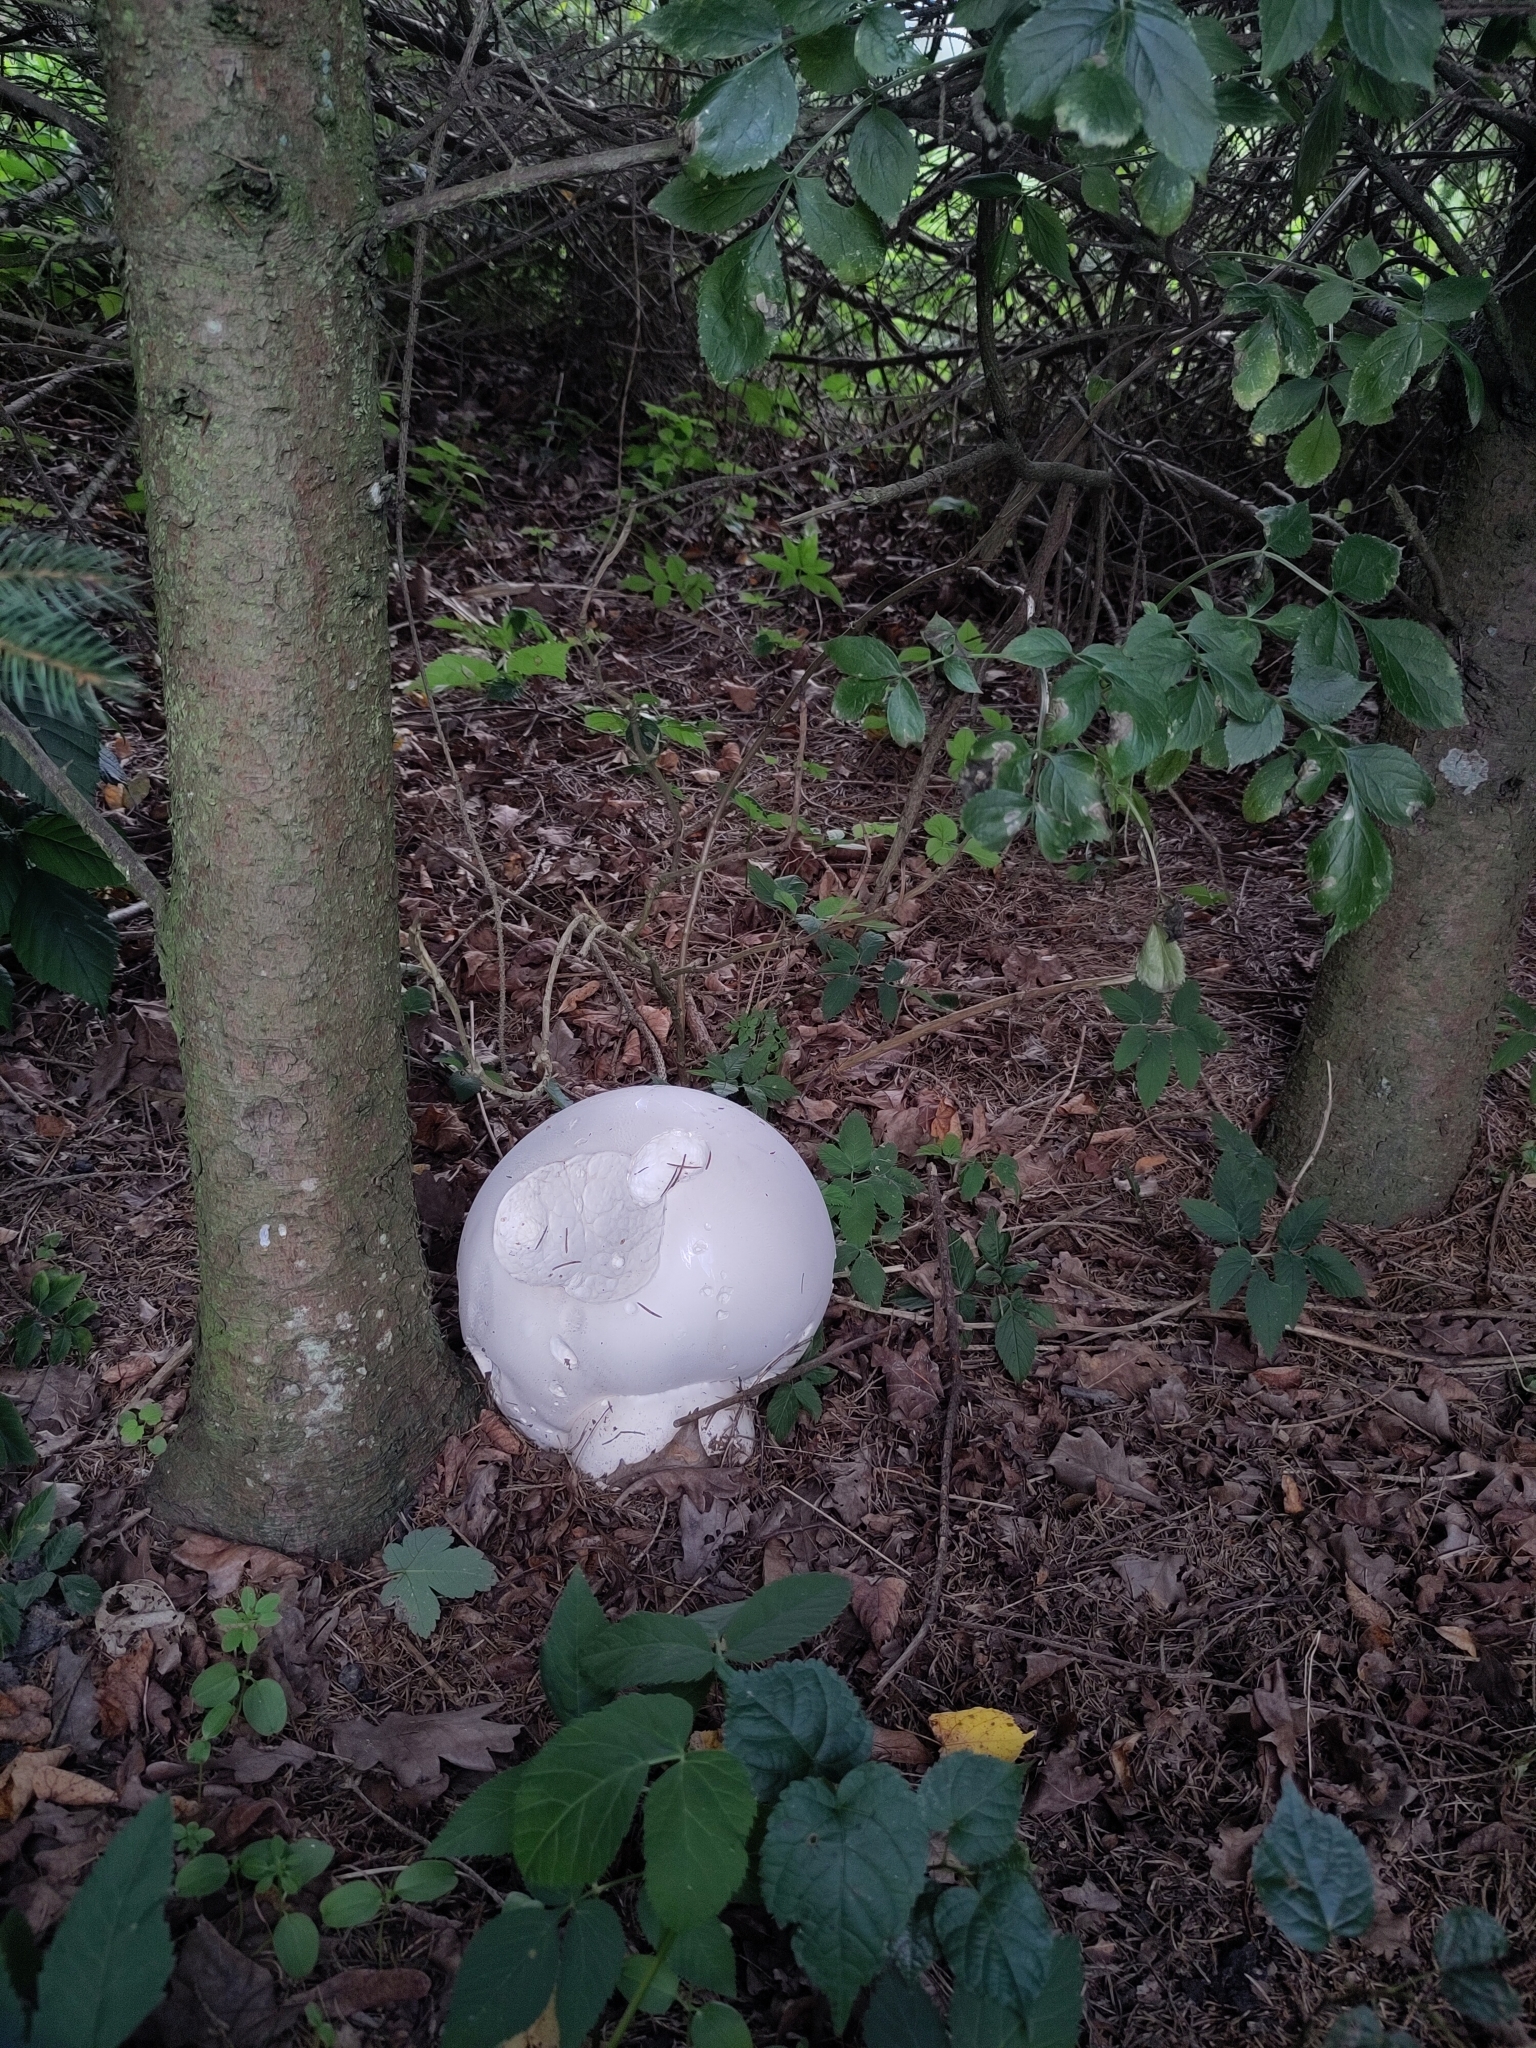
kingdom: Fungi
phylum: Basidiomycota
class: Agaricomycetes
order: Agaricales
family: Lycoperdaceae
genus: Calvatia
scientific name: Calvatia gigantea
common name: Giant puffball
